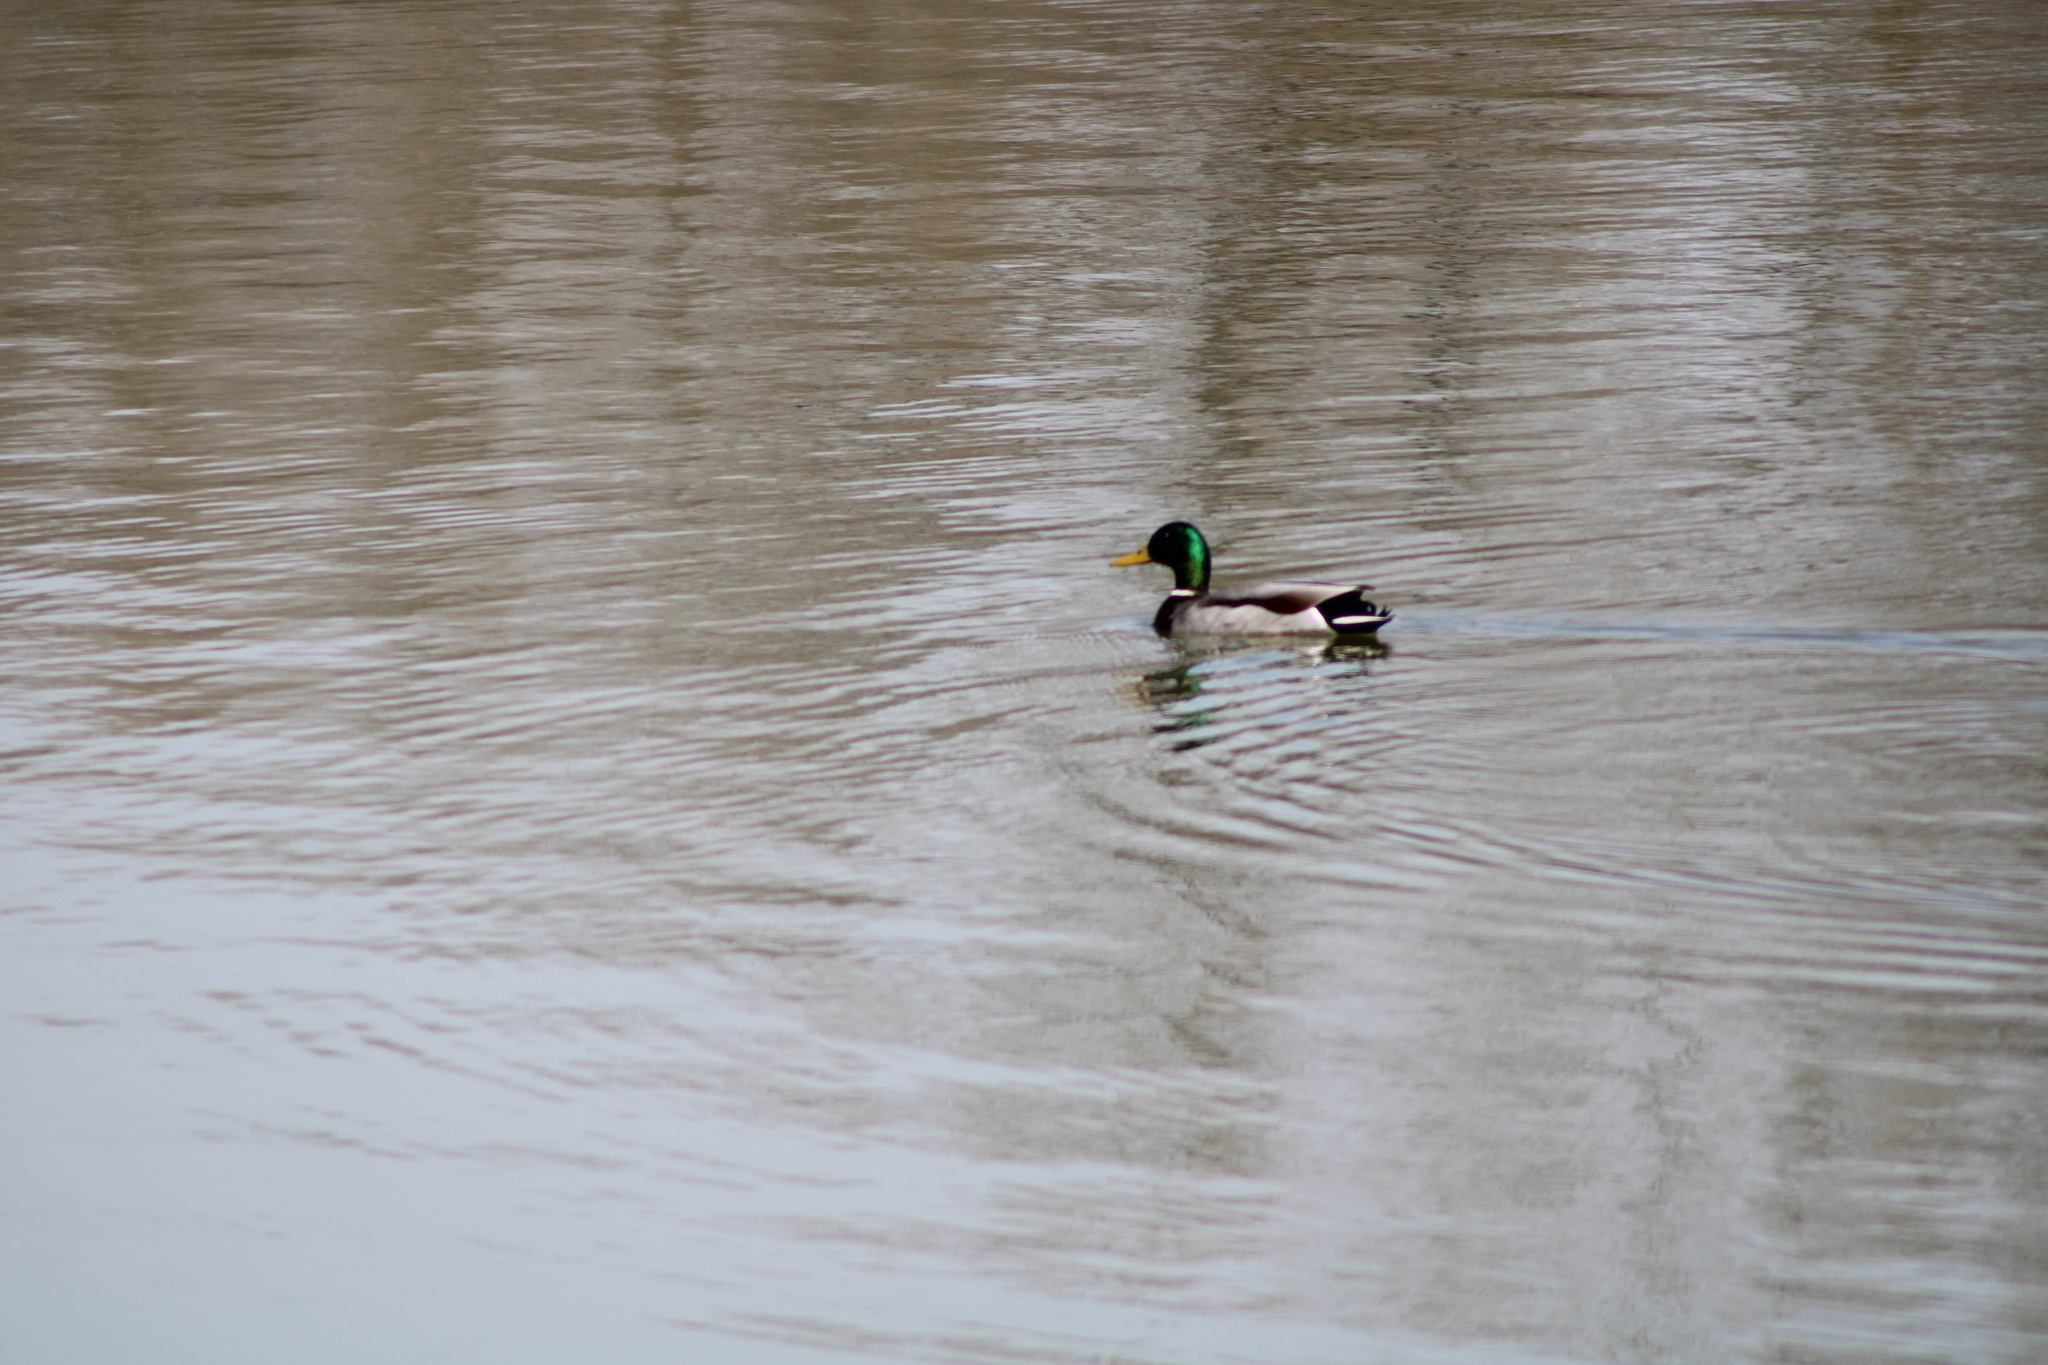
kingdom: Animalia
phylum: Chordata
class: Aves
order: Anseriformes
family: Anatidae
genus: Anas
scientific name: Anas platyrhynchos
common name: Mallard
